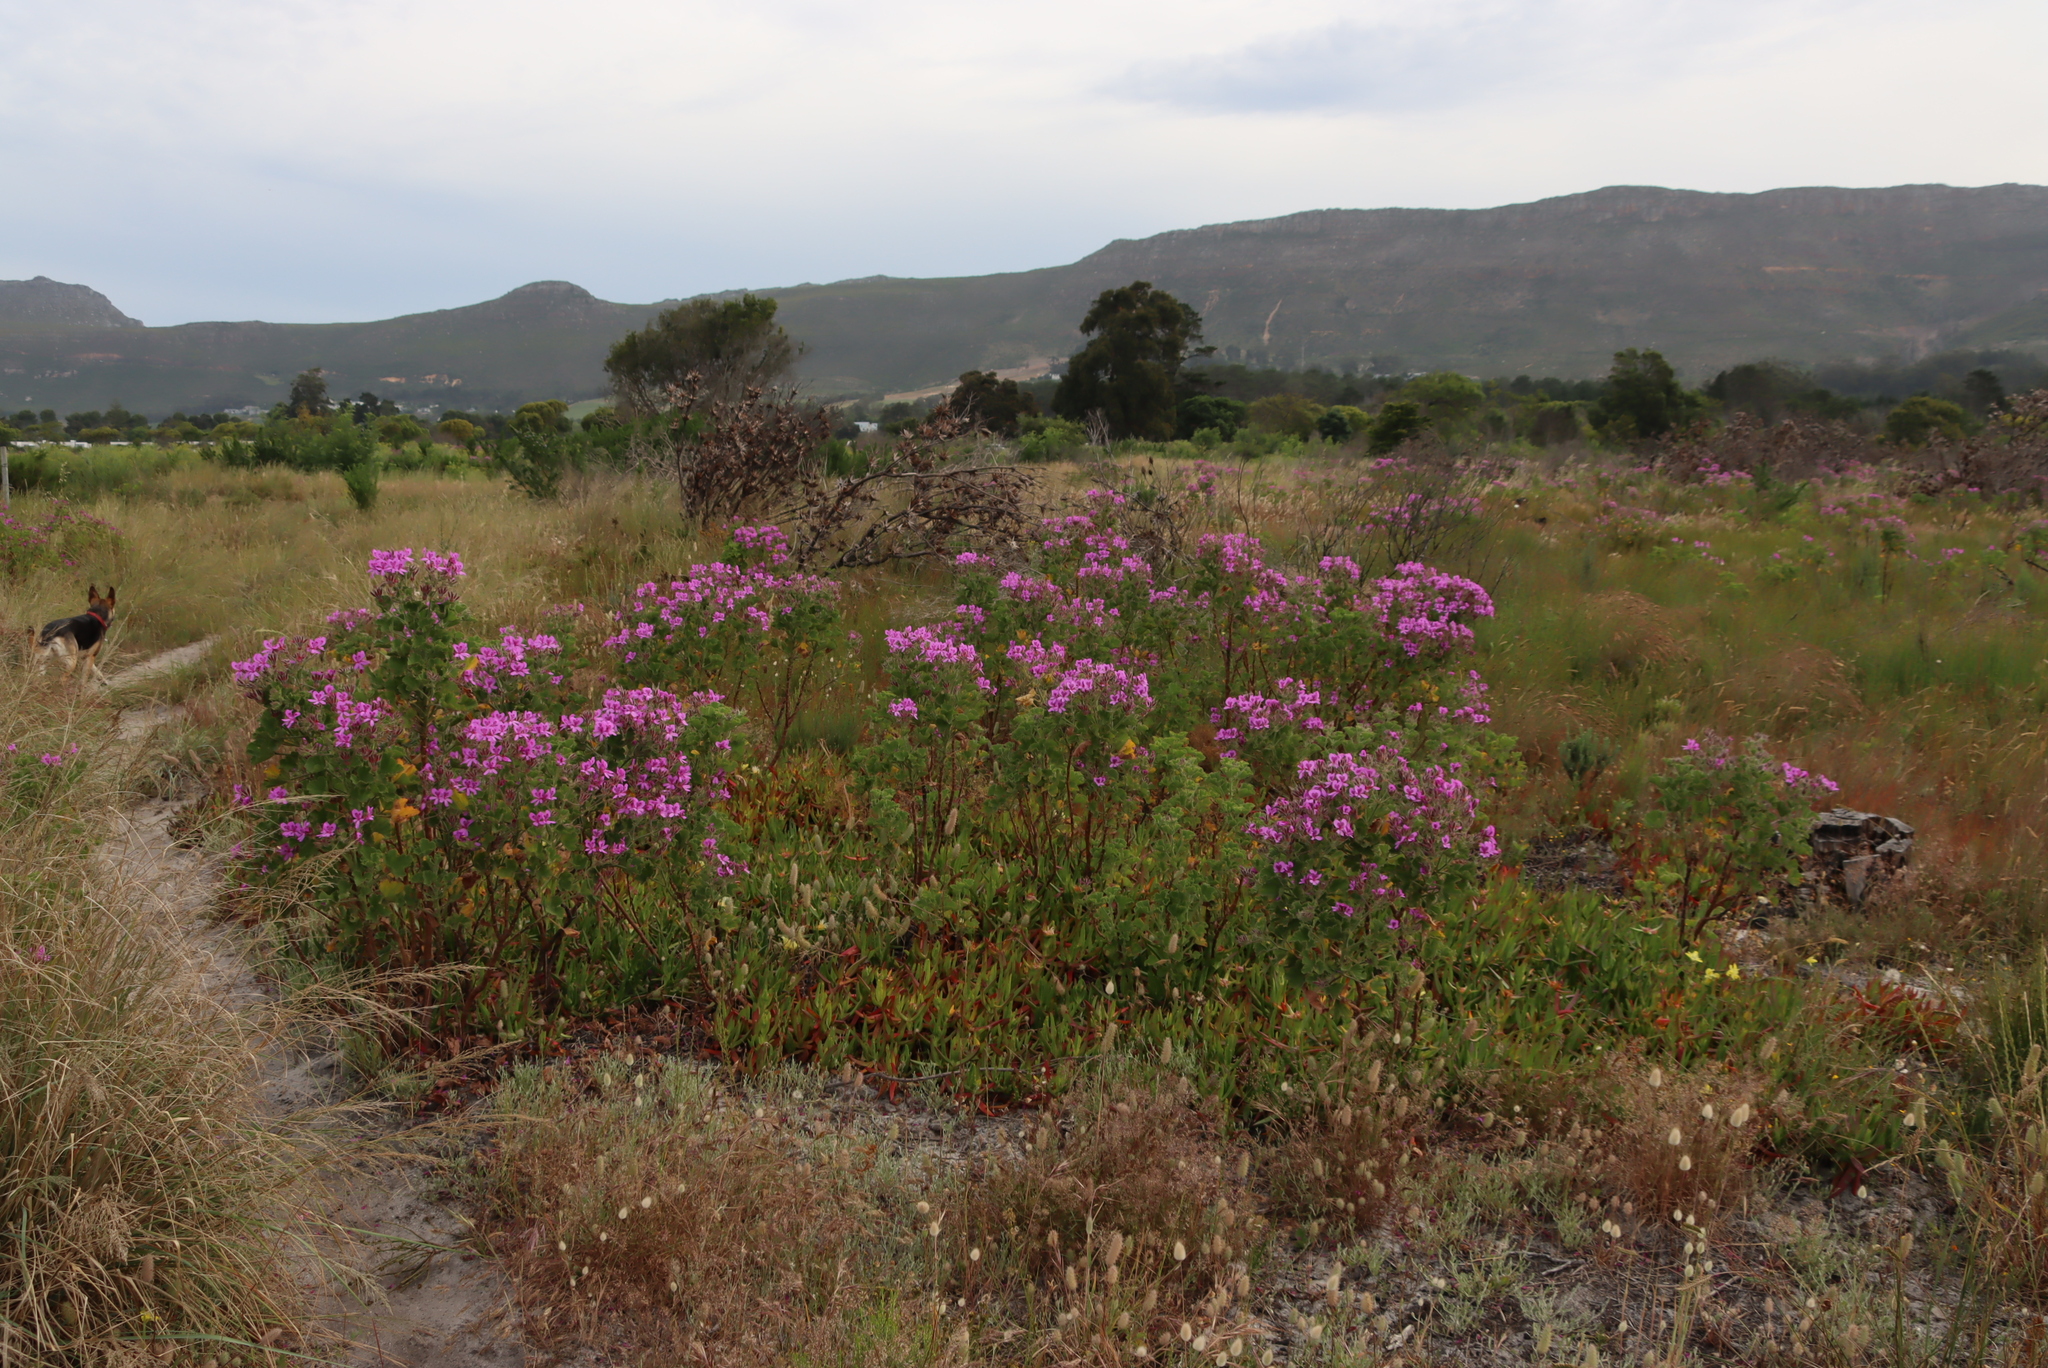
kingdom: Plantae
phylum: Tracheophyta
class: Magnoliopsida
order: Geraniales
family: Geraniaceae
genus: Pelargonium
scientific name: Pelargonium cucullatum
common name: Tree pelargonium
